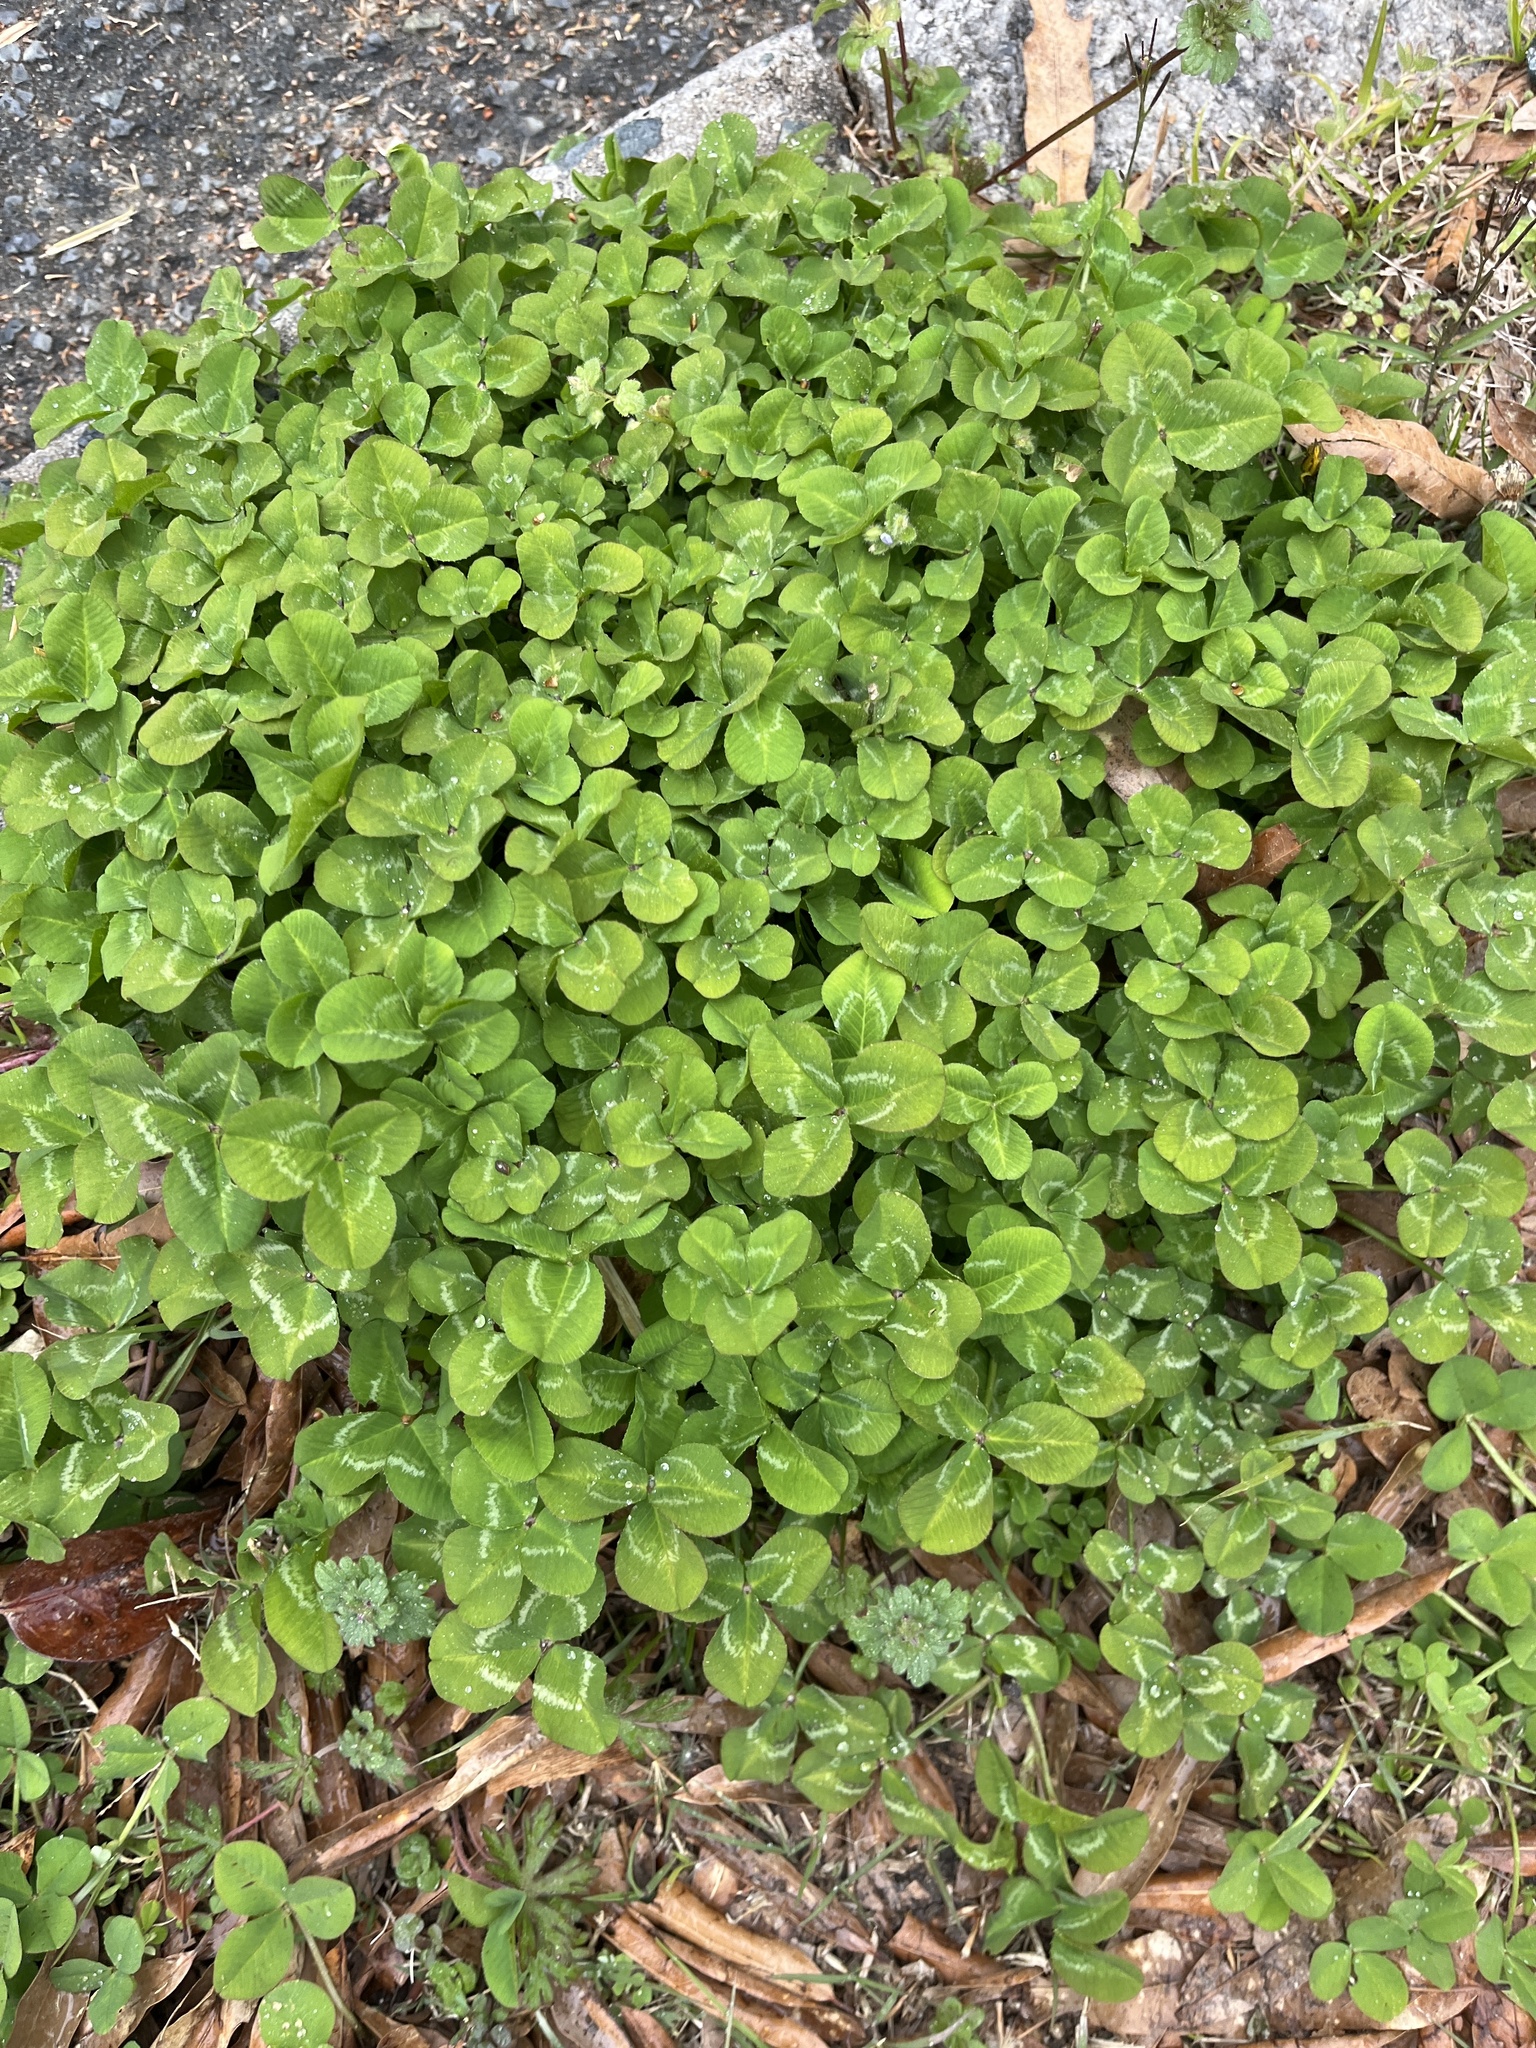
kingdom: Plantae
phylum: Tracheophyta
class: Magnoliopsida
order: Fabales
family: Fabaceae
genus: Trifolium
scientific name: Trifolium repens
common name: White clover
